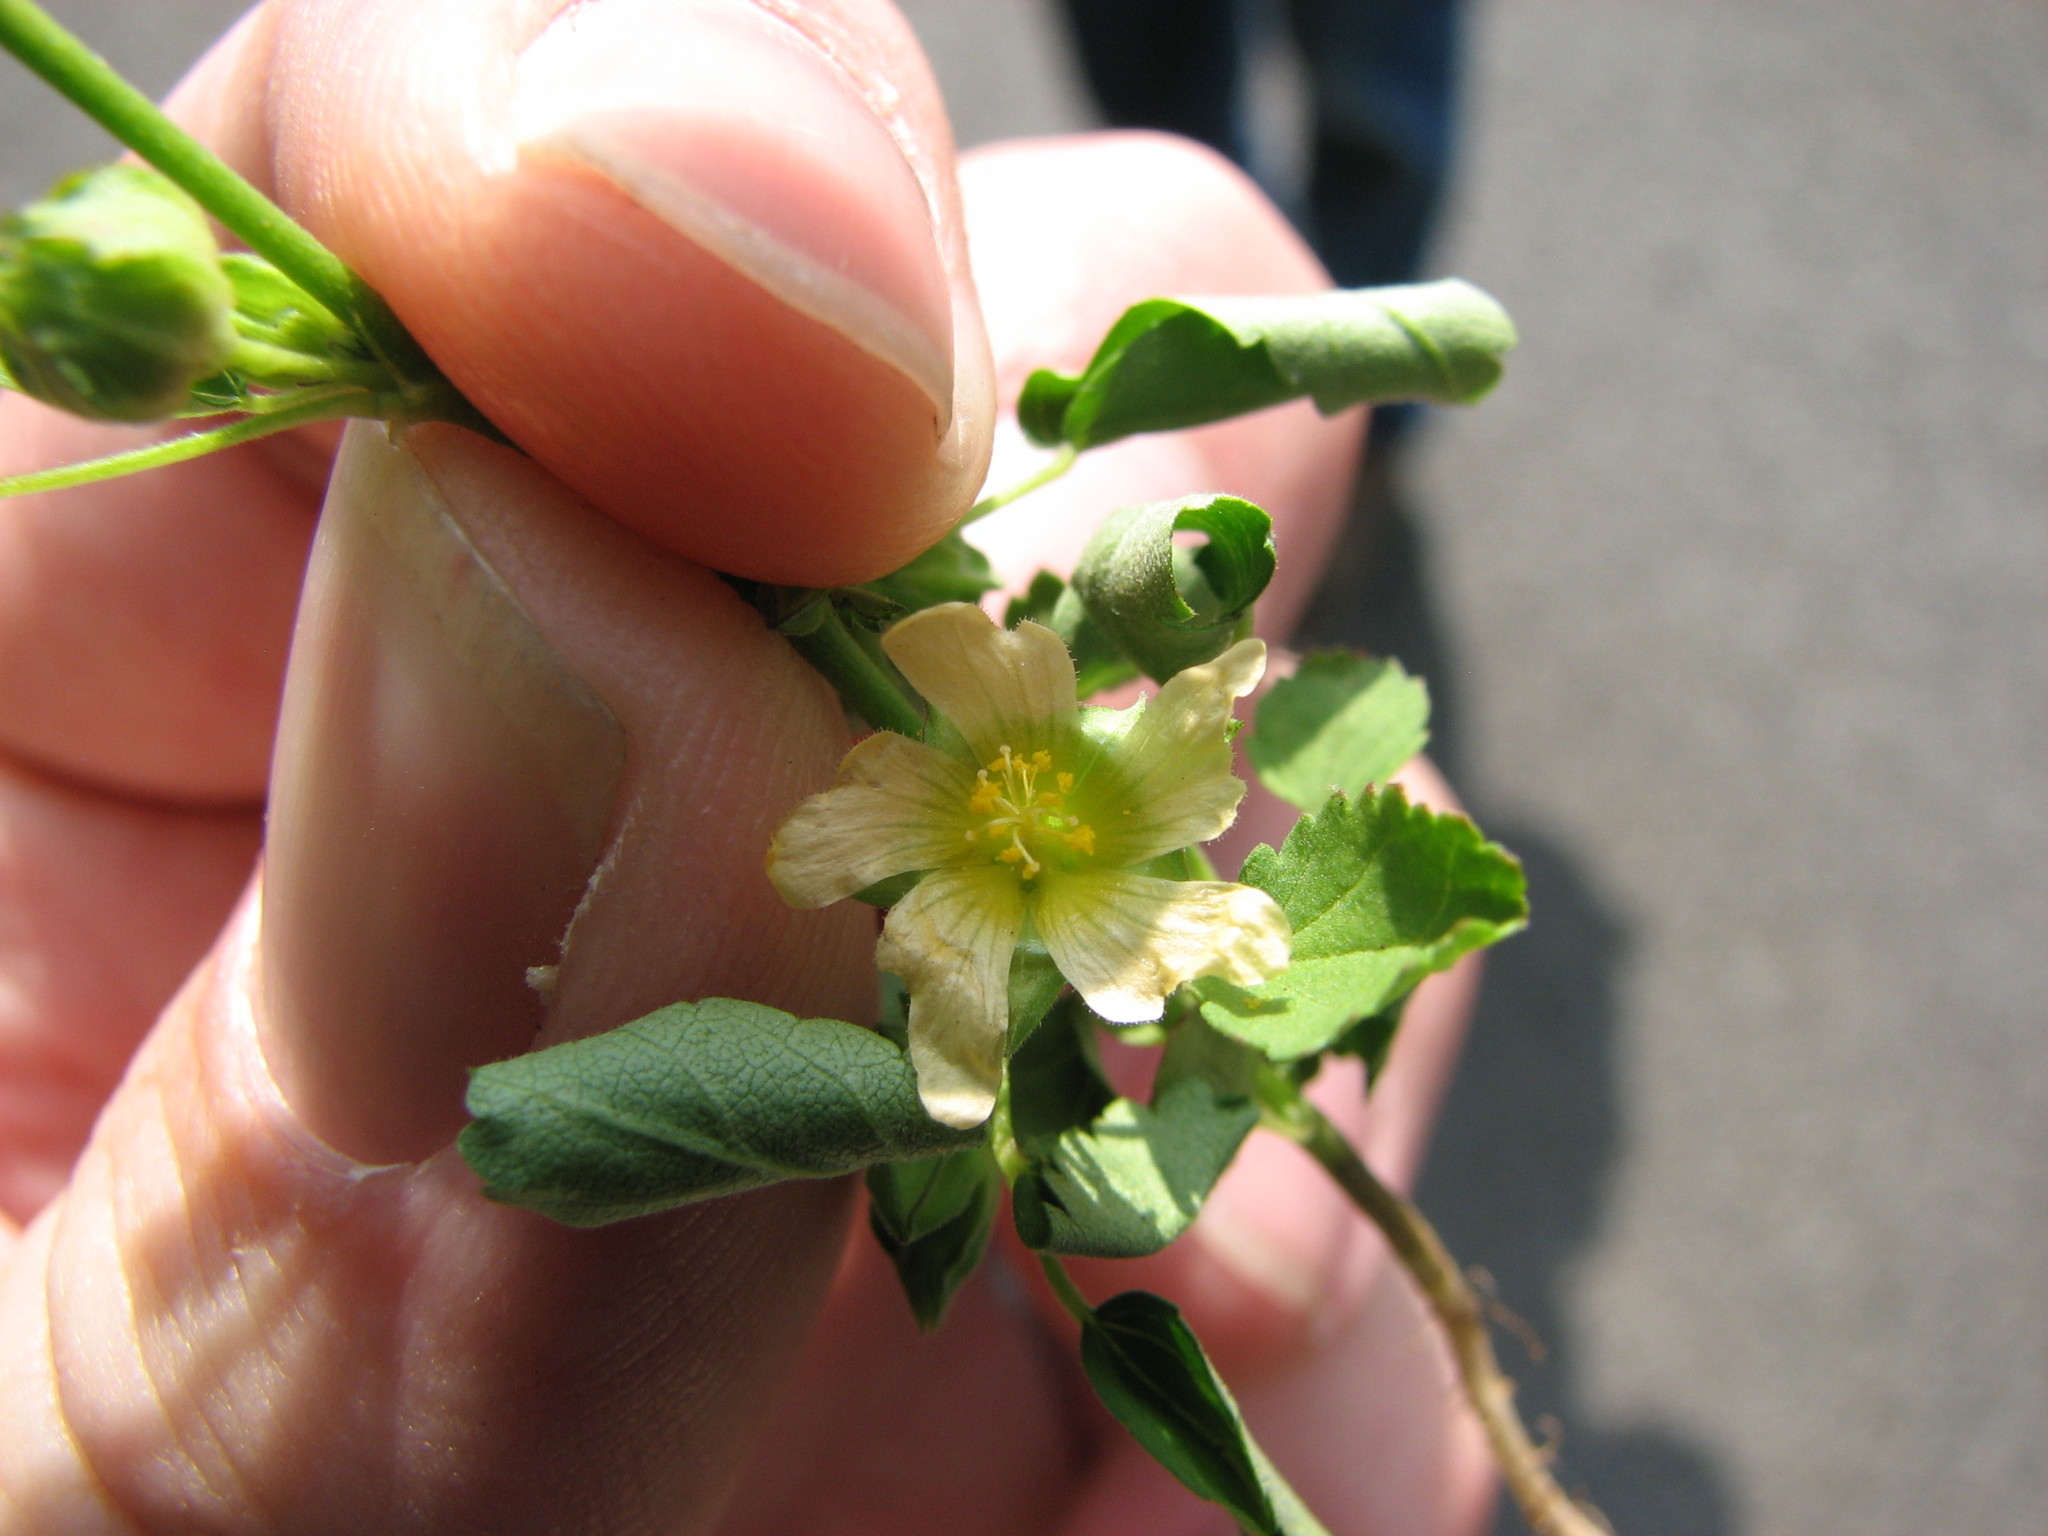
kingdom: Plantae
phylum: Tracheophyta
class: Magnoliopsida
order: Malvales
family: Malvaceae
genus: Sida
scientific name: Sida spinosa
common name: Prickly fanpetals
